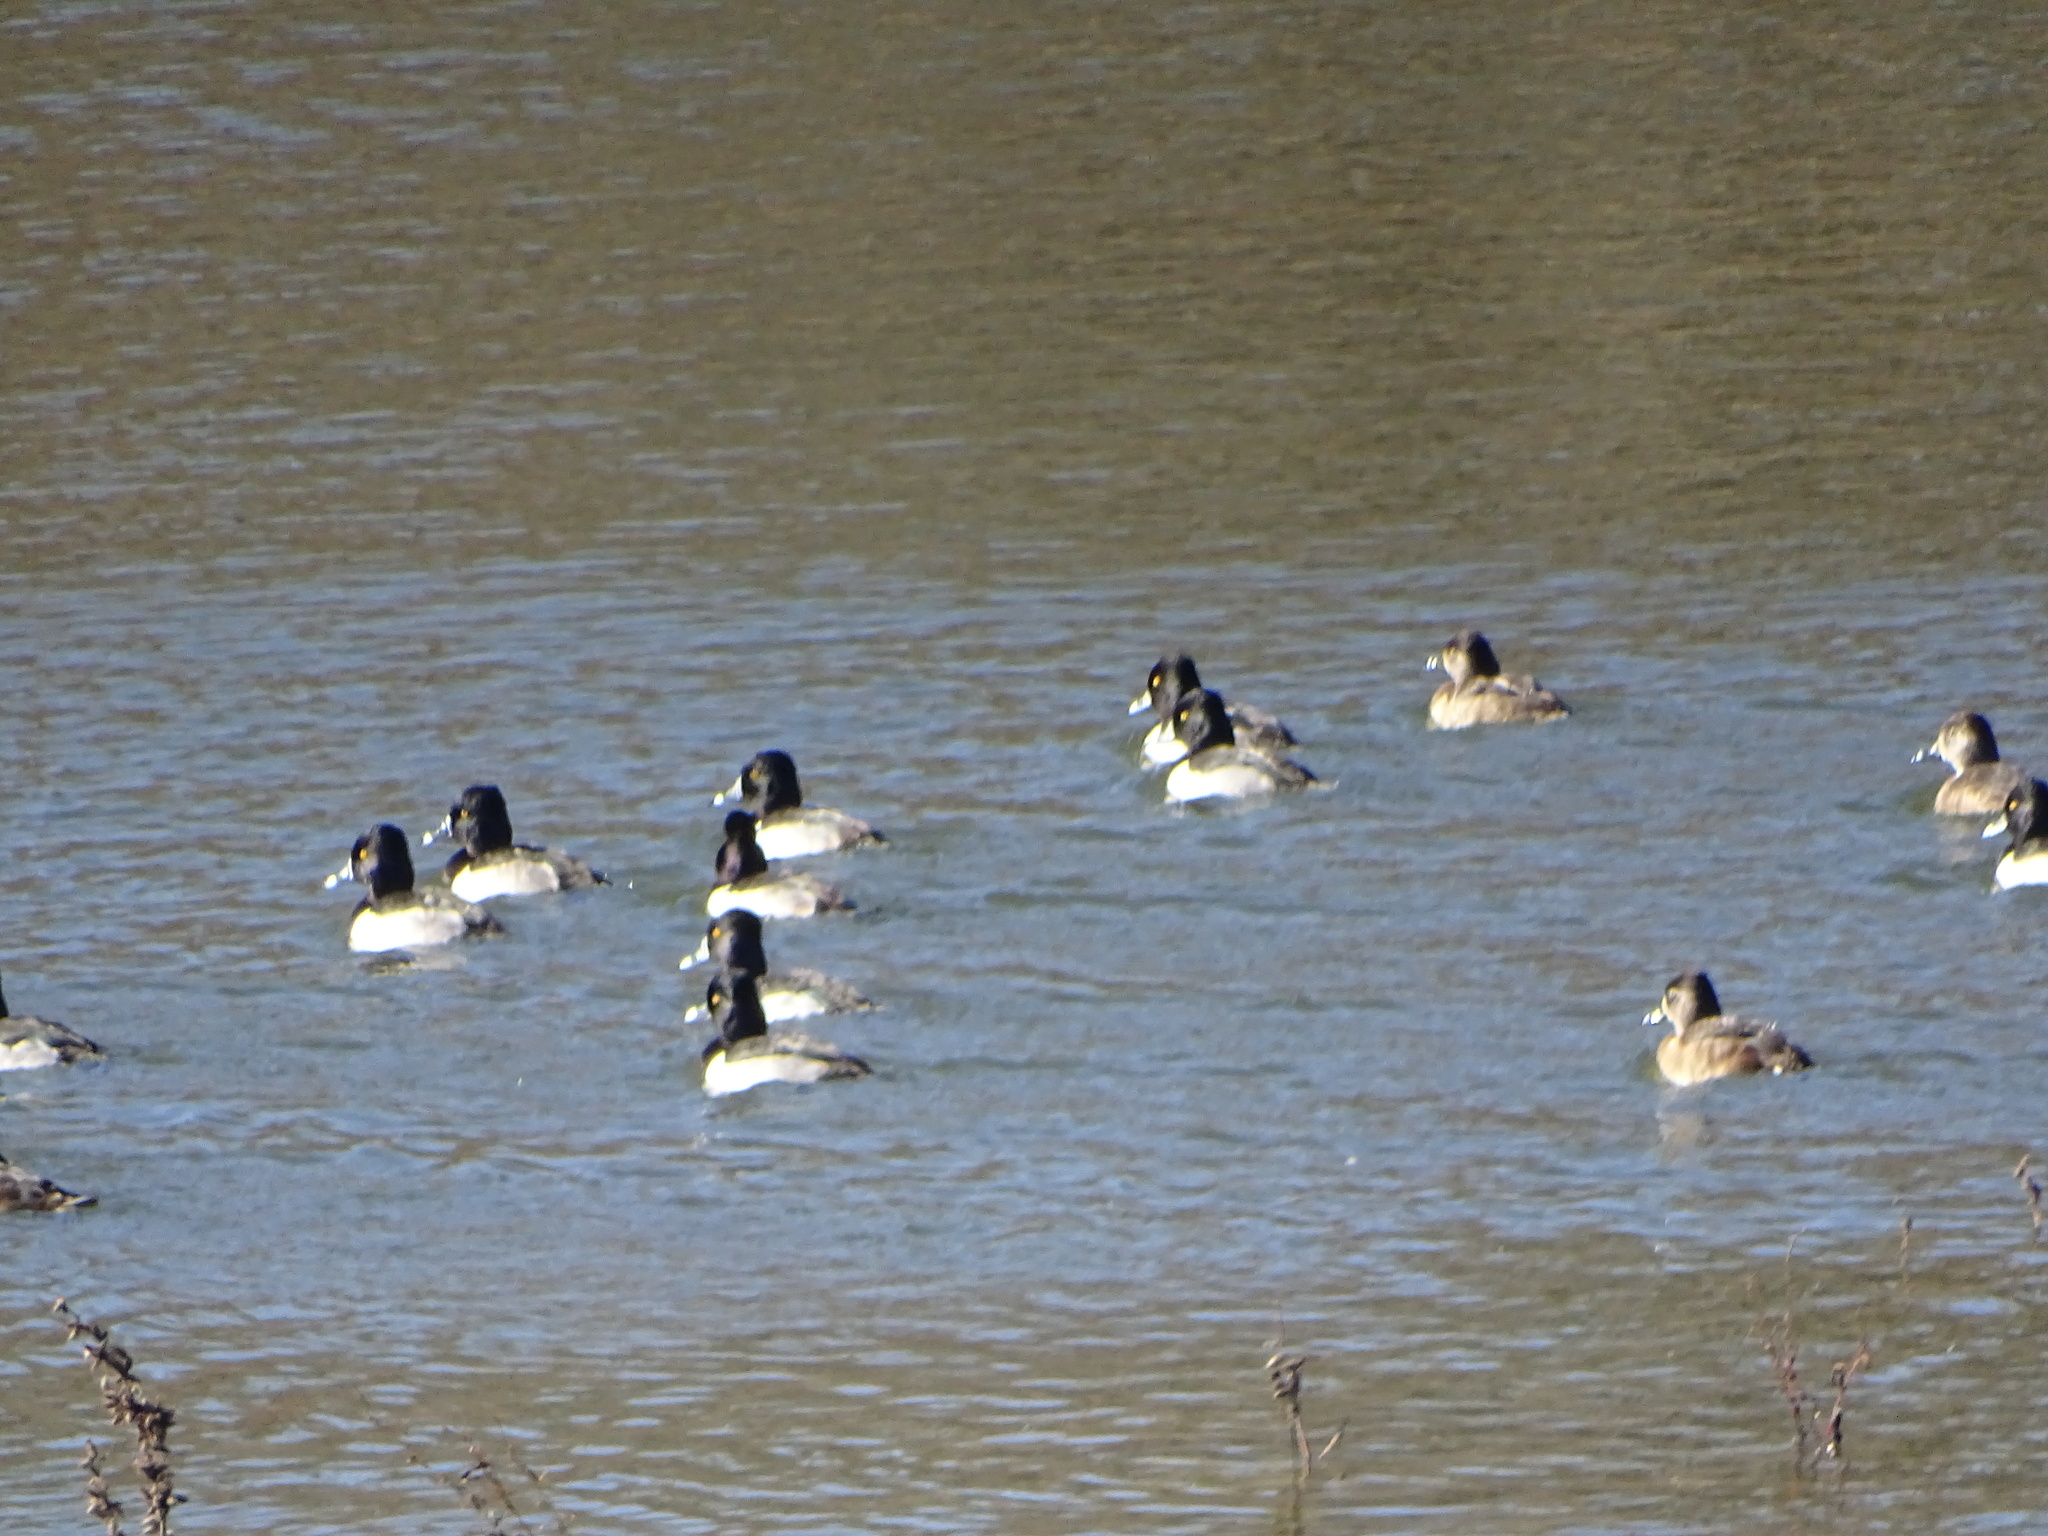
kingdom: Animalia
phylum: Chordata
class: Aves
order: Anseriformes
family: Anatidae
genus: Aythya
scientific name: Aythya collaris
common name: Ring-necked duck
